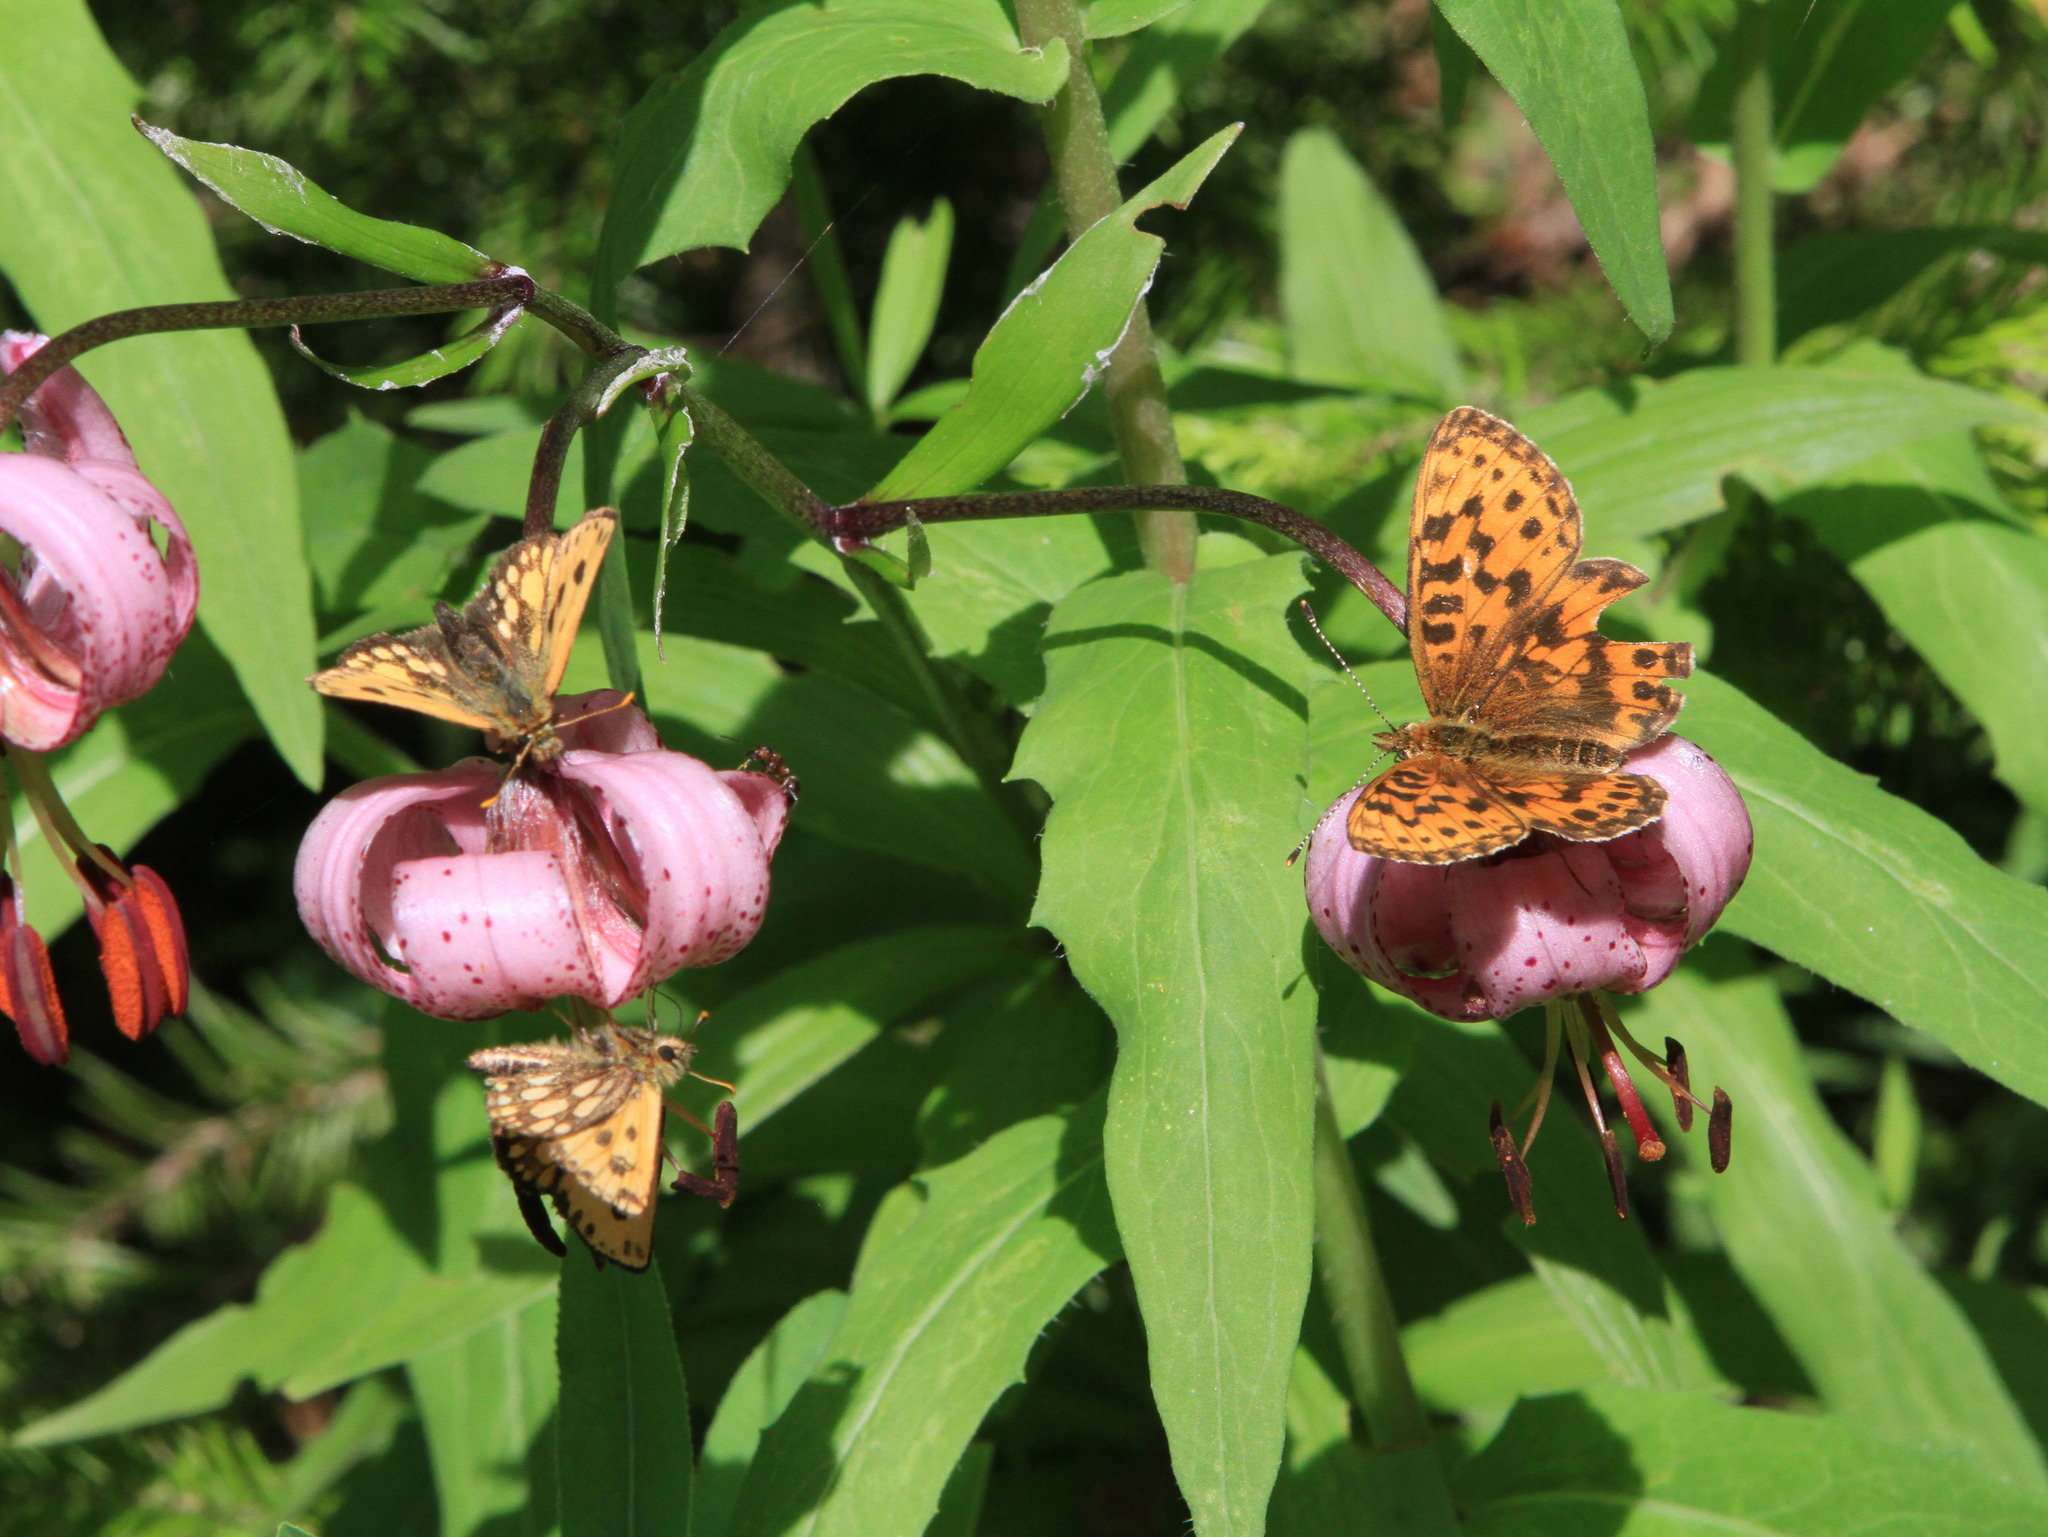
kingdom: Animalia
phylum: Arthropoda
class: Insecta
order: Lepidoptera
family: Nymphalidae
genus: Boloria
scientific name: Boloria thore
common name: Thor's fritillary
